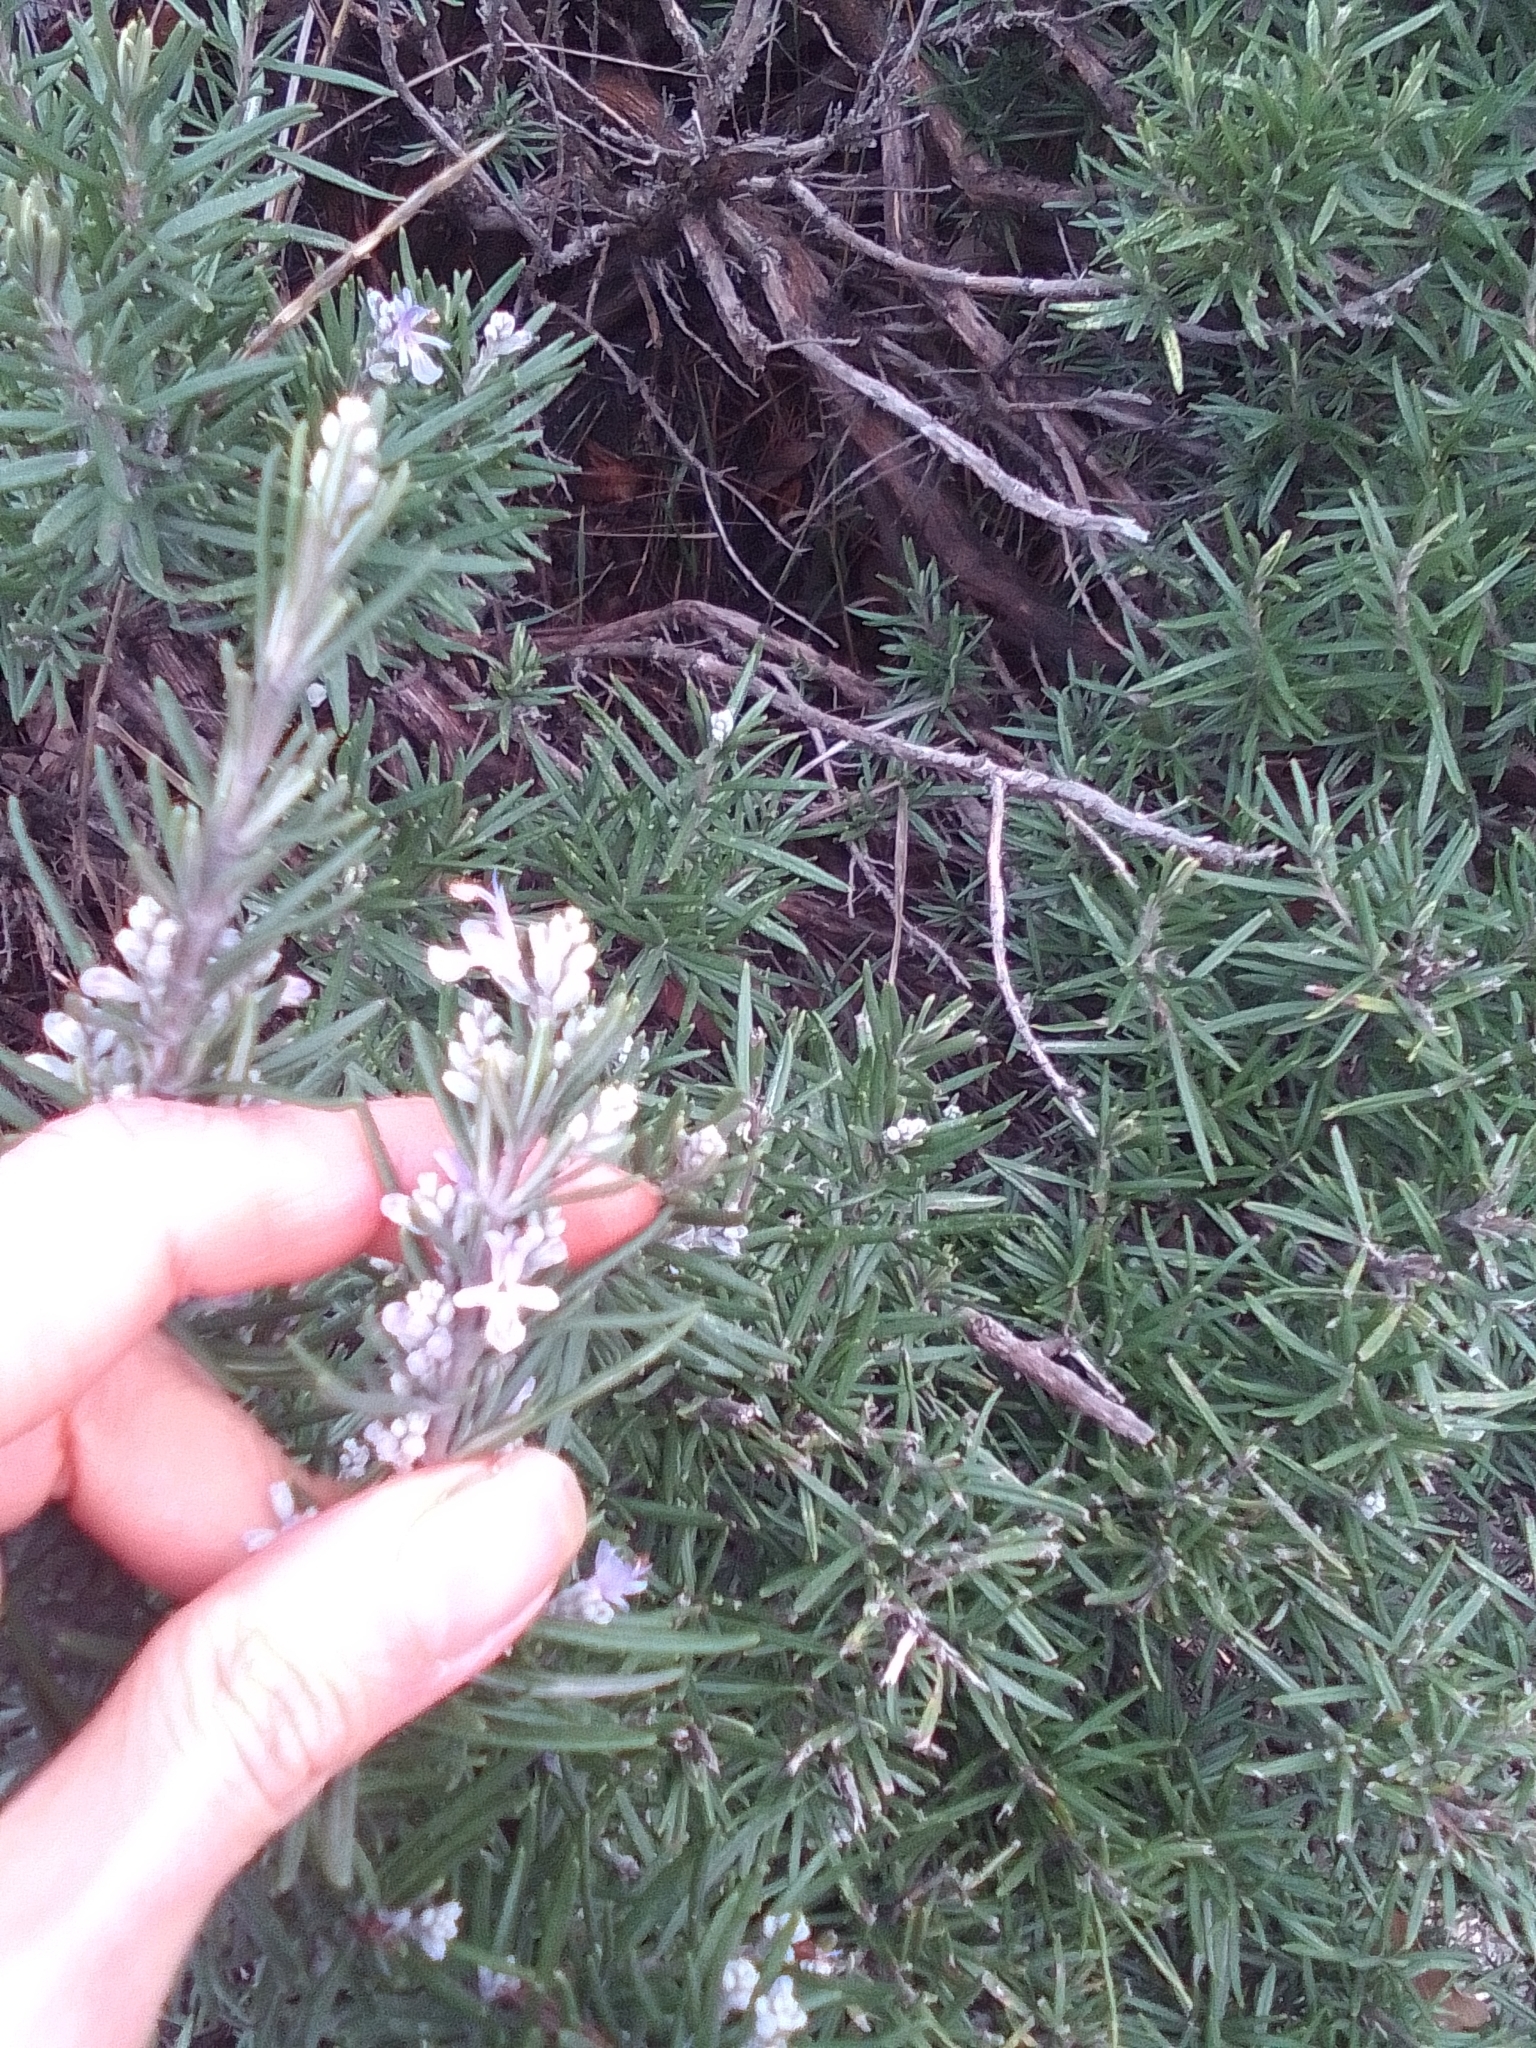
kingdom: Plantae
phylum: Tracheophyta
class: Magnoliopsida
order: Lamiales
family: Lamiaceae
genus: Salvia
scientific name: Salvia rosmarinus
